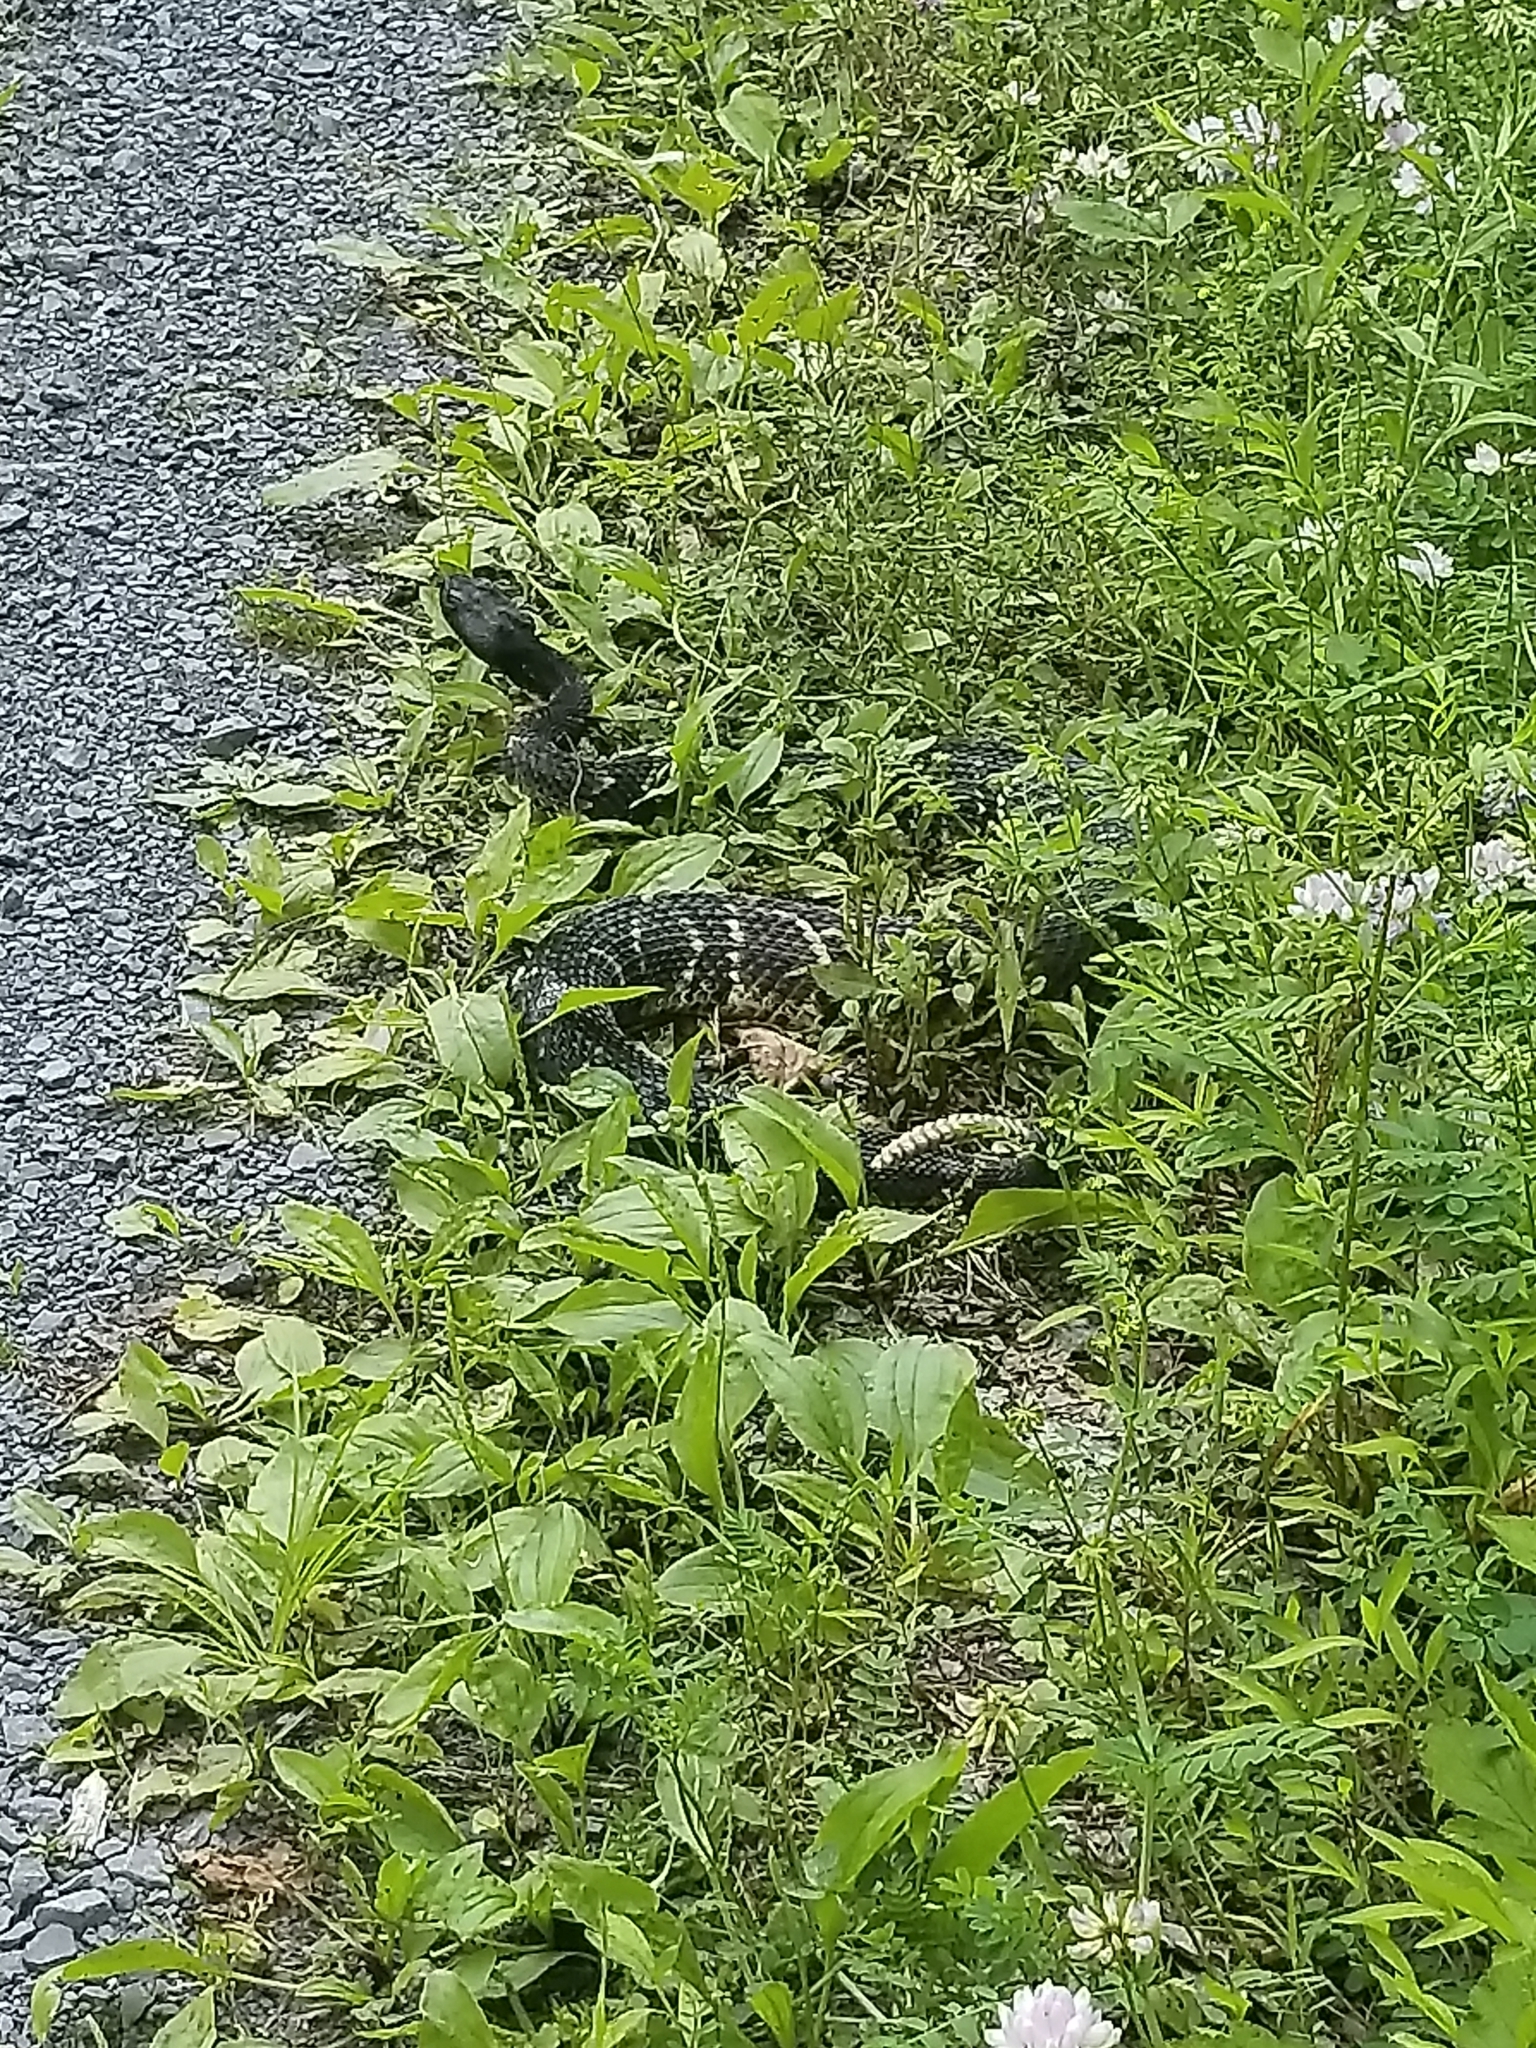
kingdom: Animalia
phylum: Chordata
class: Squamata
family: Viperidae
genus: Crotalus
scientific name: Crotalus horridus
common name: Timber rattlesnake
